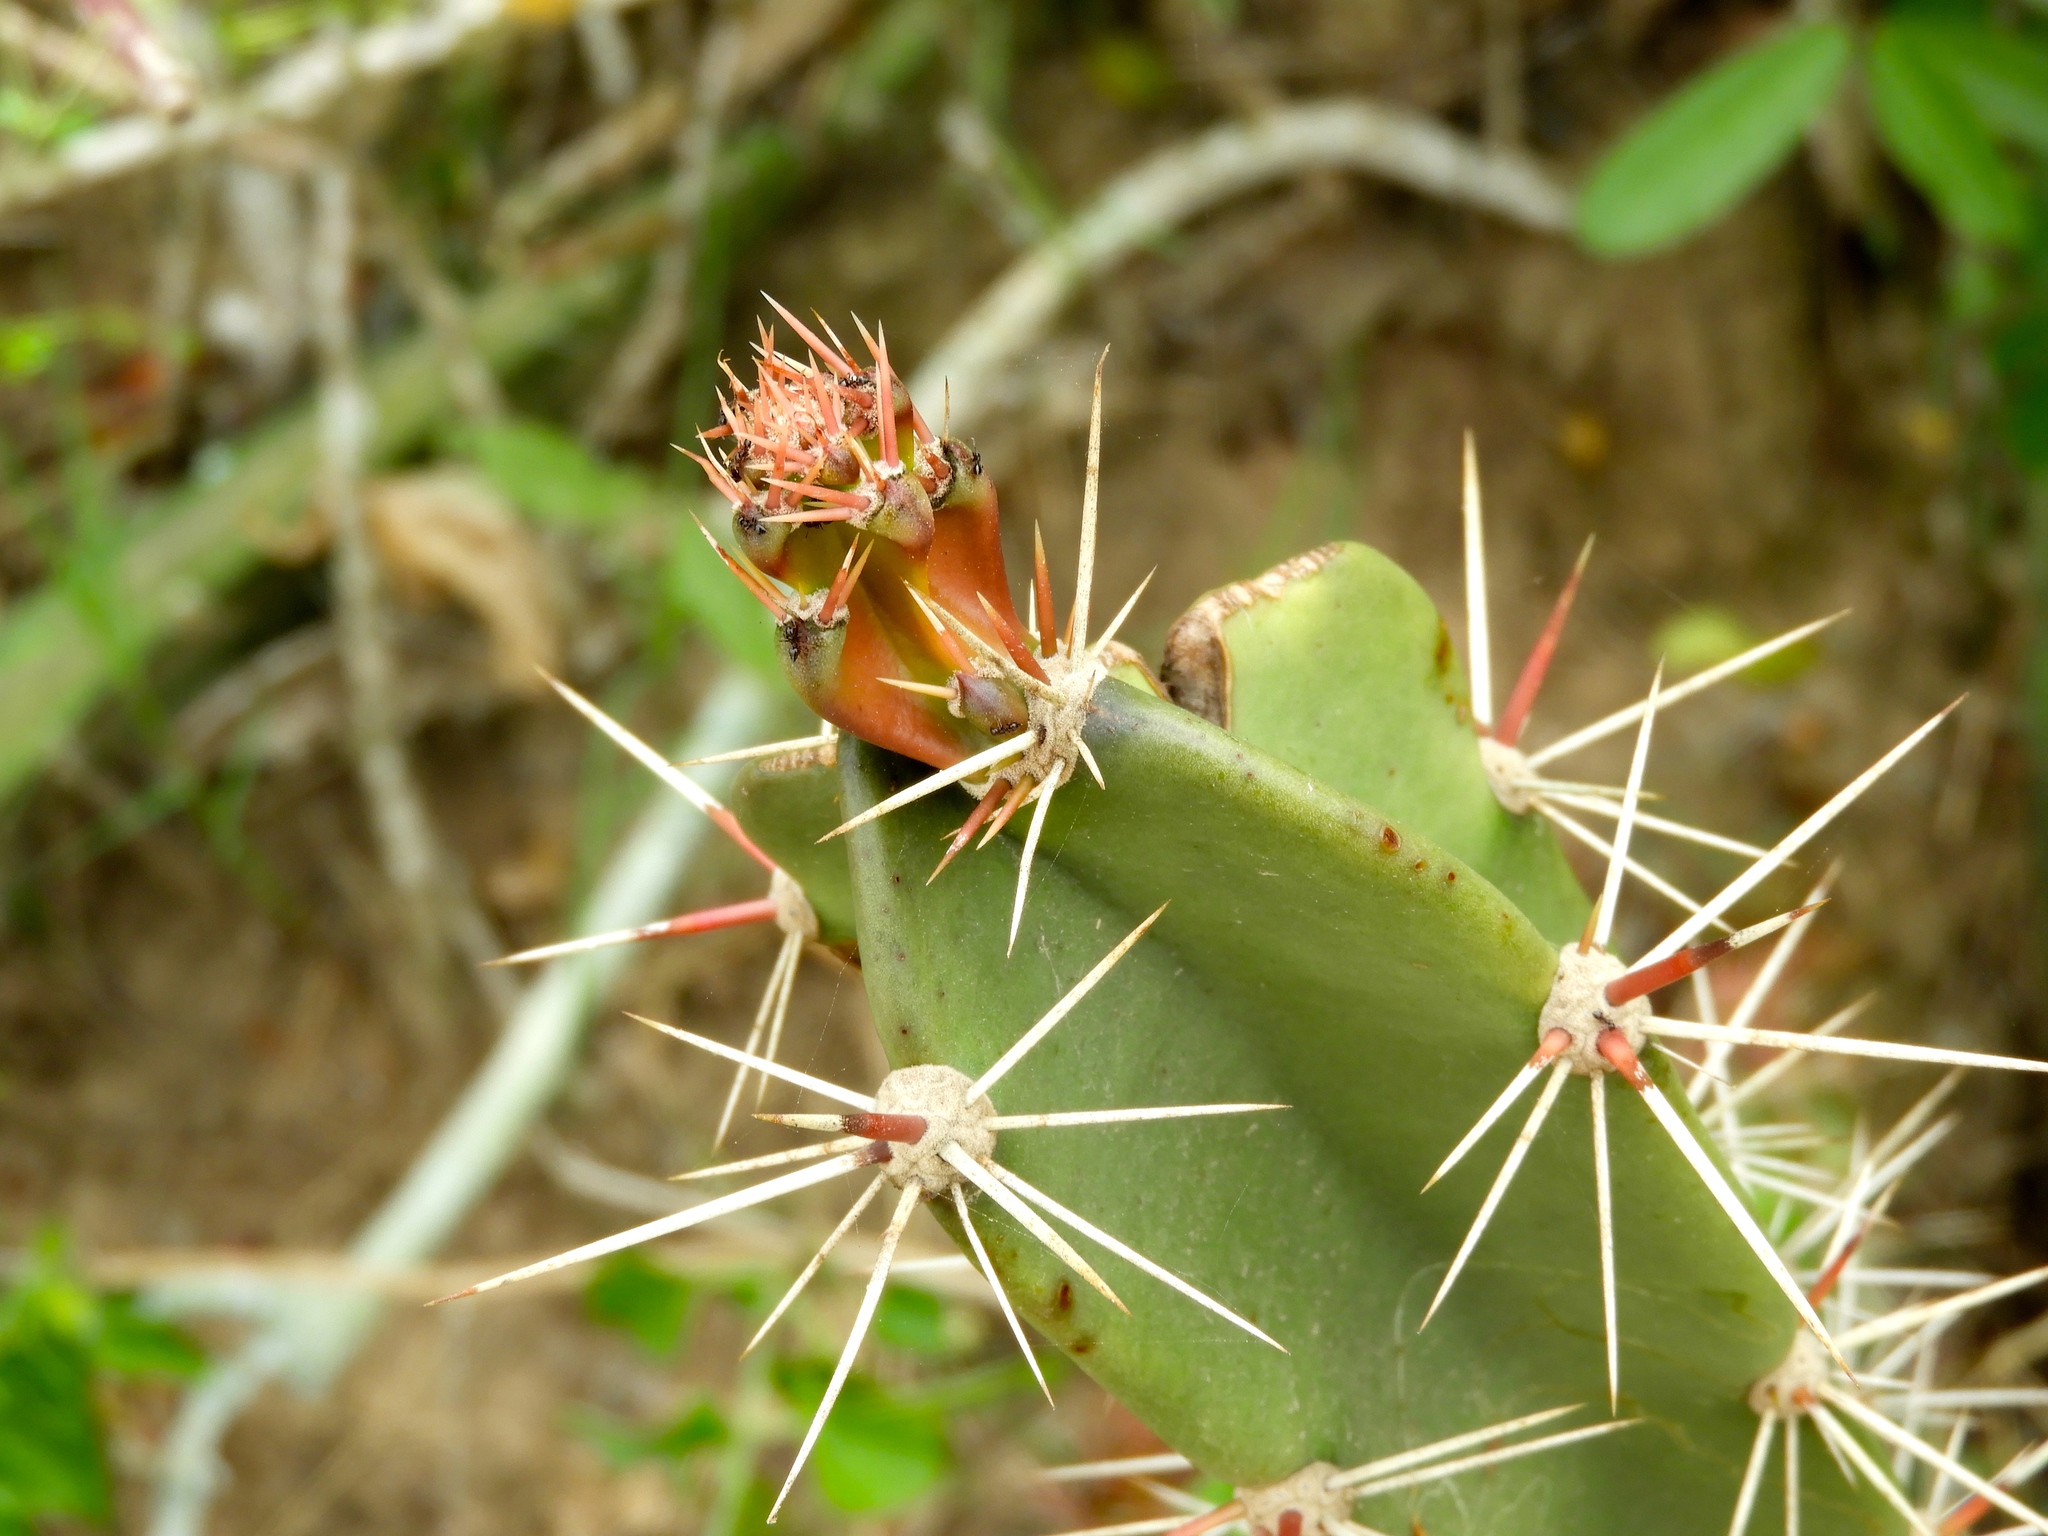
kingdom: Plantae
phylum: Tracheophyta
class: Magnoliopsida
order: Caryophyllales
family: Cactaceae
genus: Stenocereus
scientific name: Stenocereus
